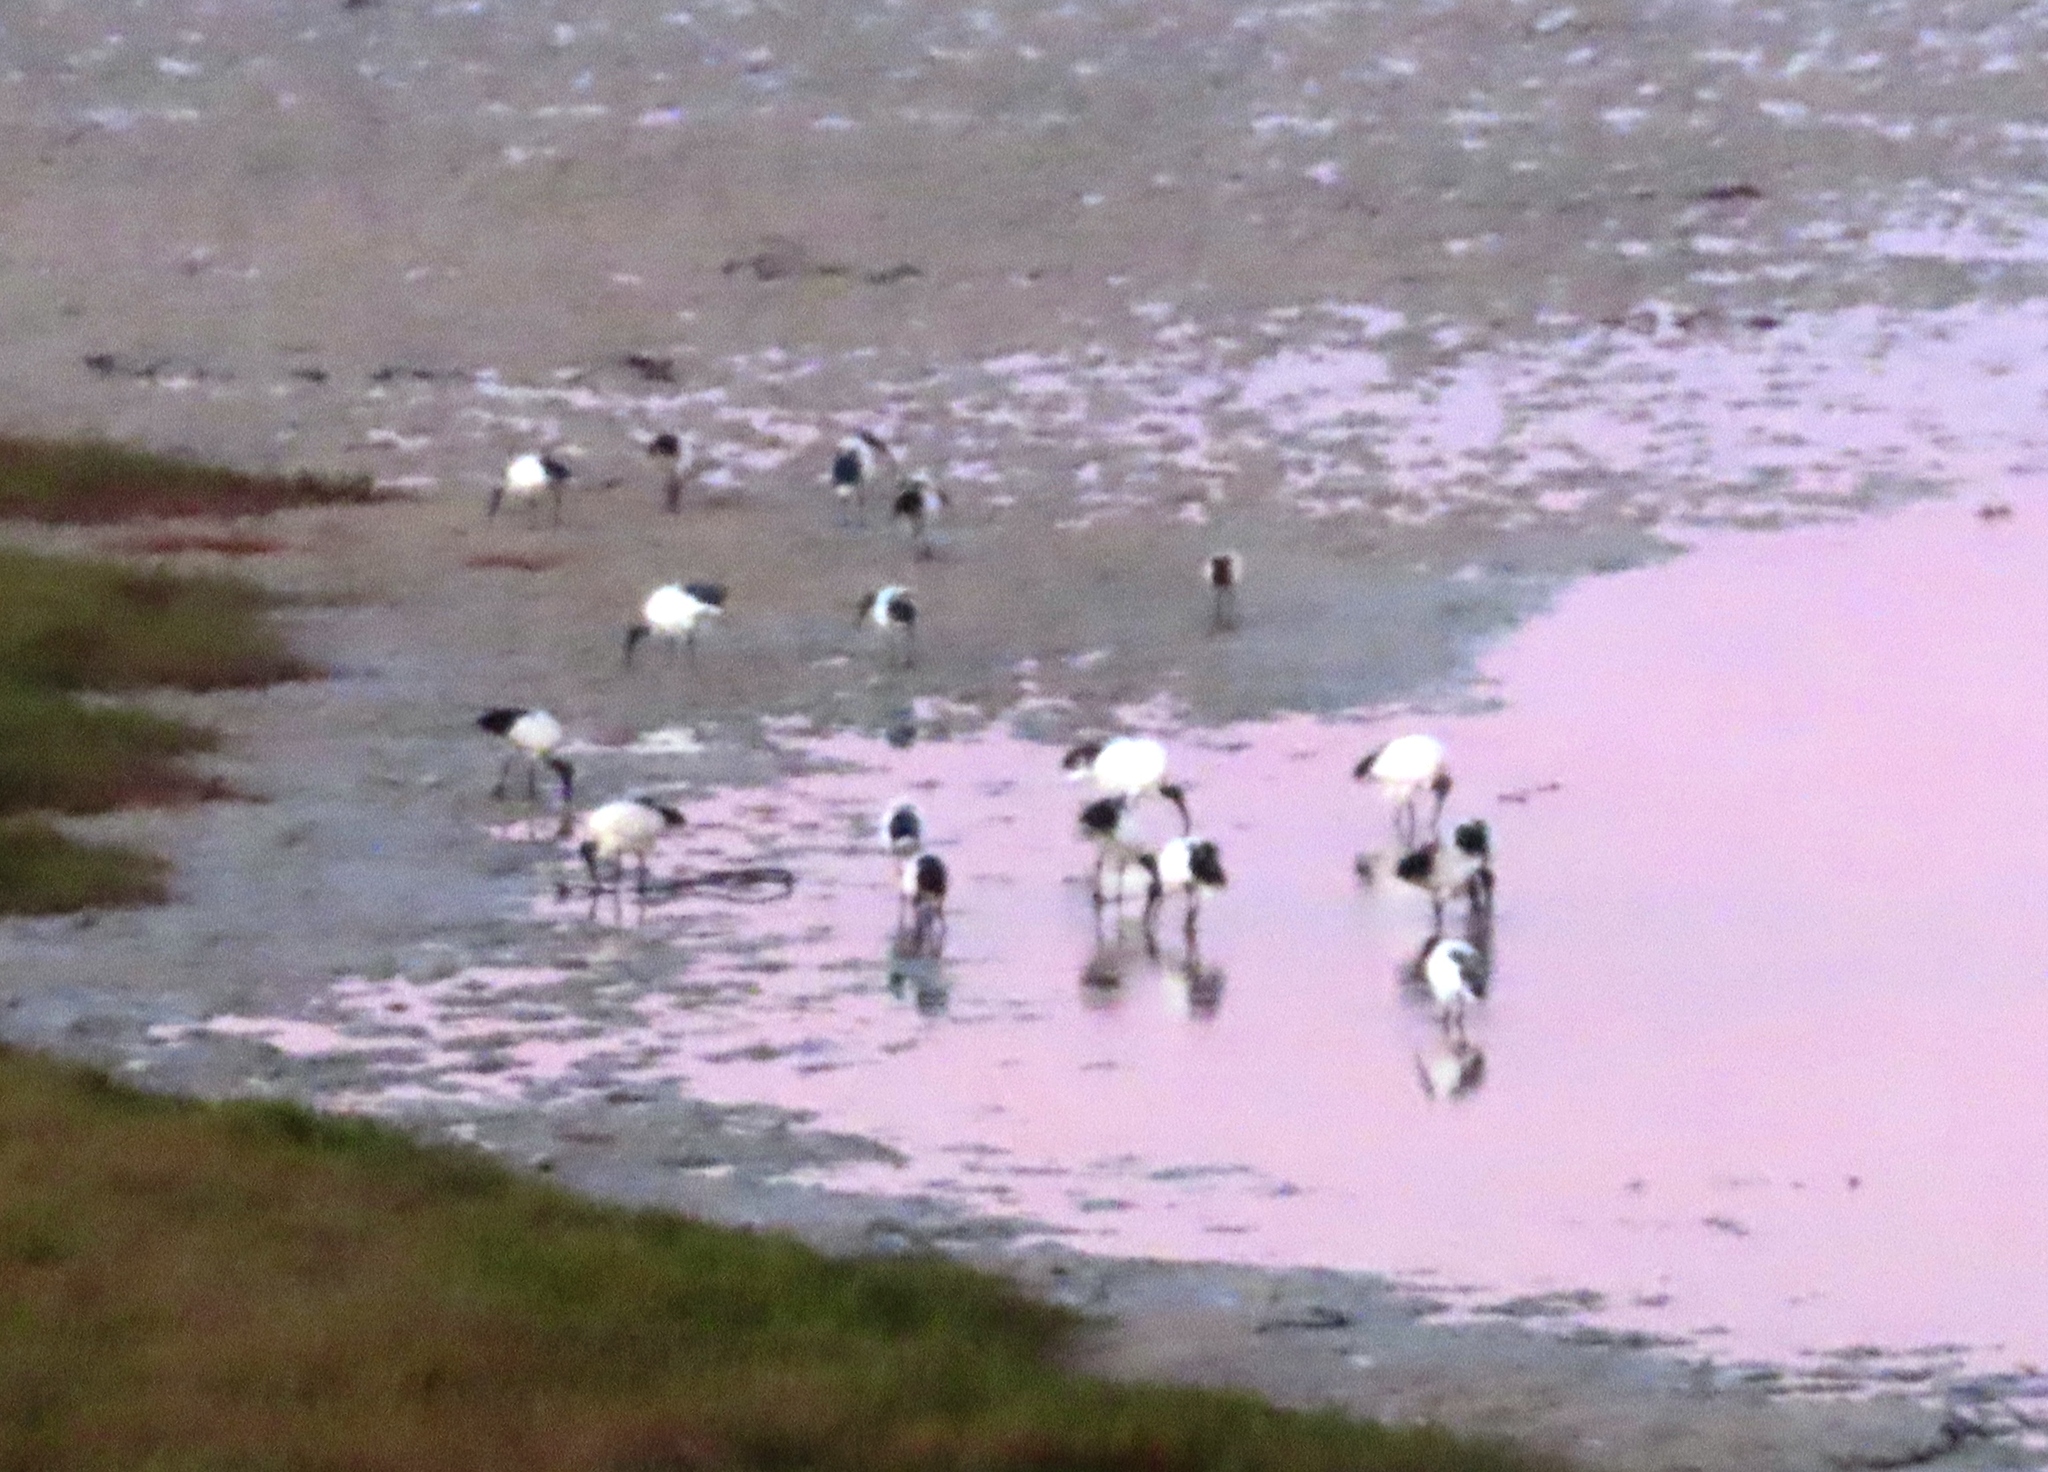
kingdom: Animalia
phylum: Chordata
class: Aves
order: Pelecaniformes
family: Threskiornithidae
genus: Threskiornis
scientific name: Threskiornis aethiopicus
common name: Sacred ibis
